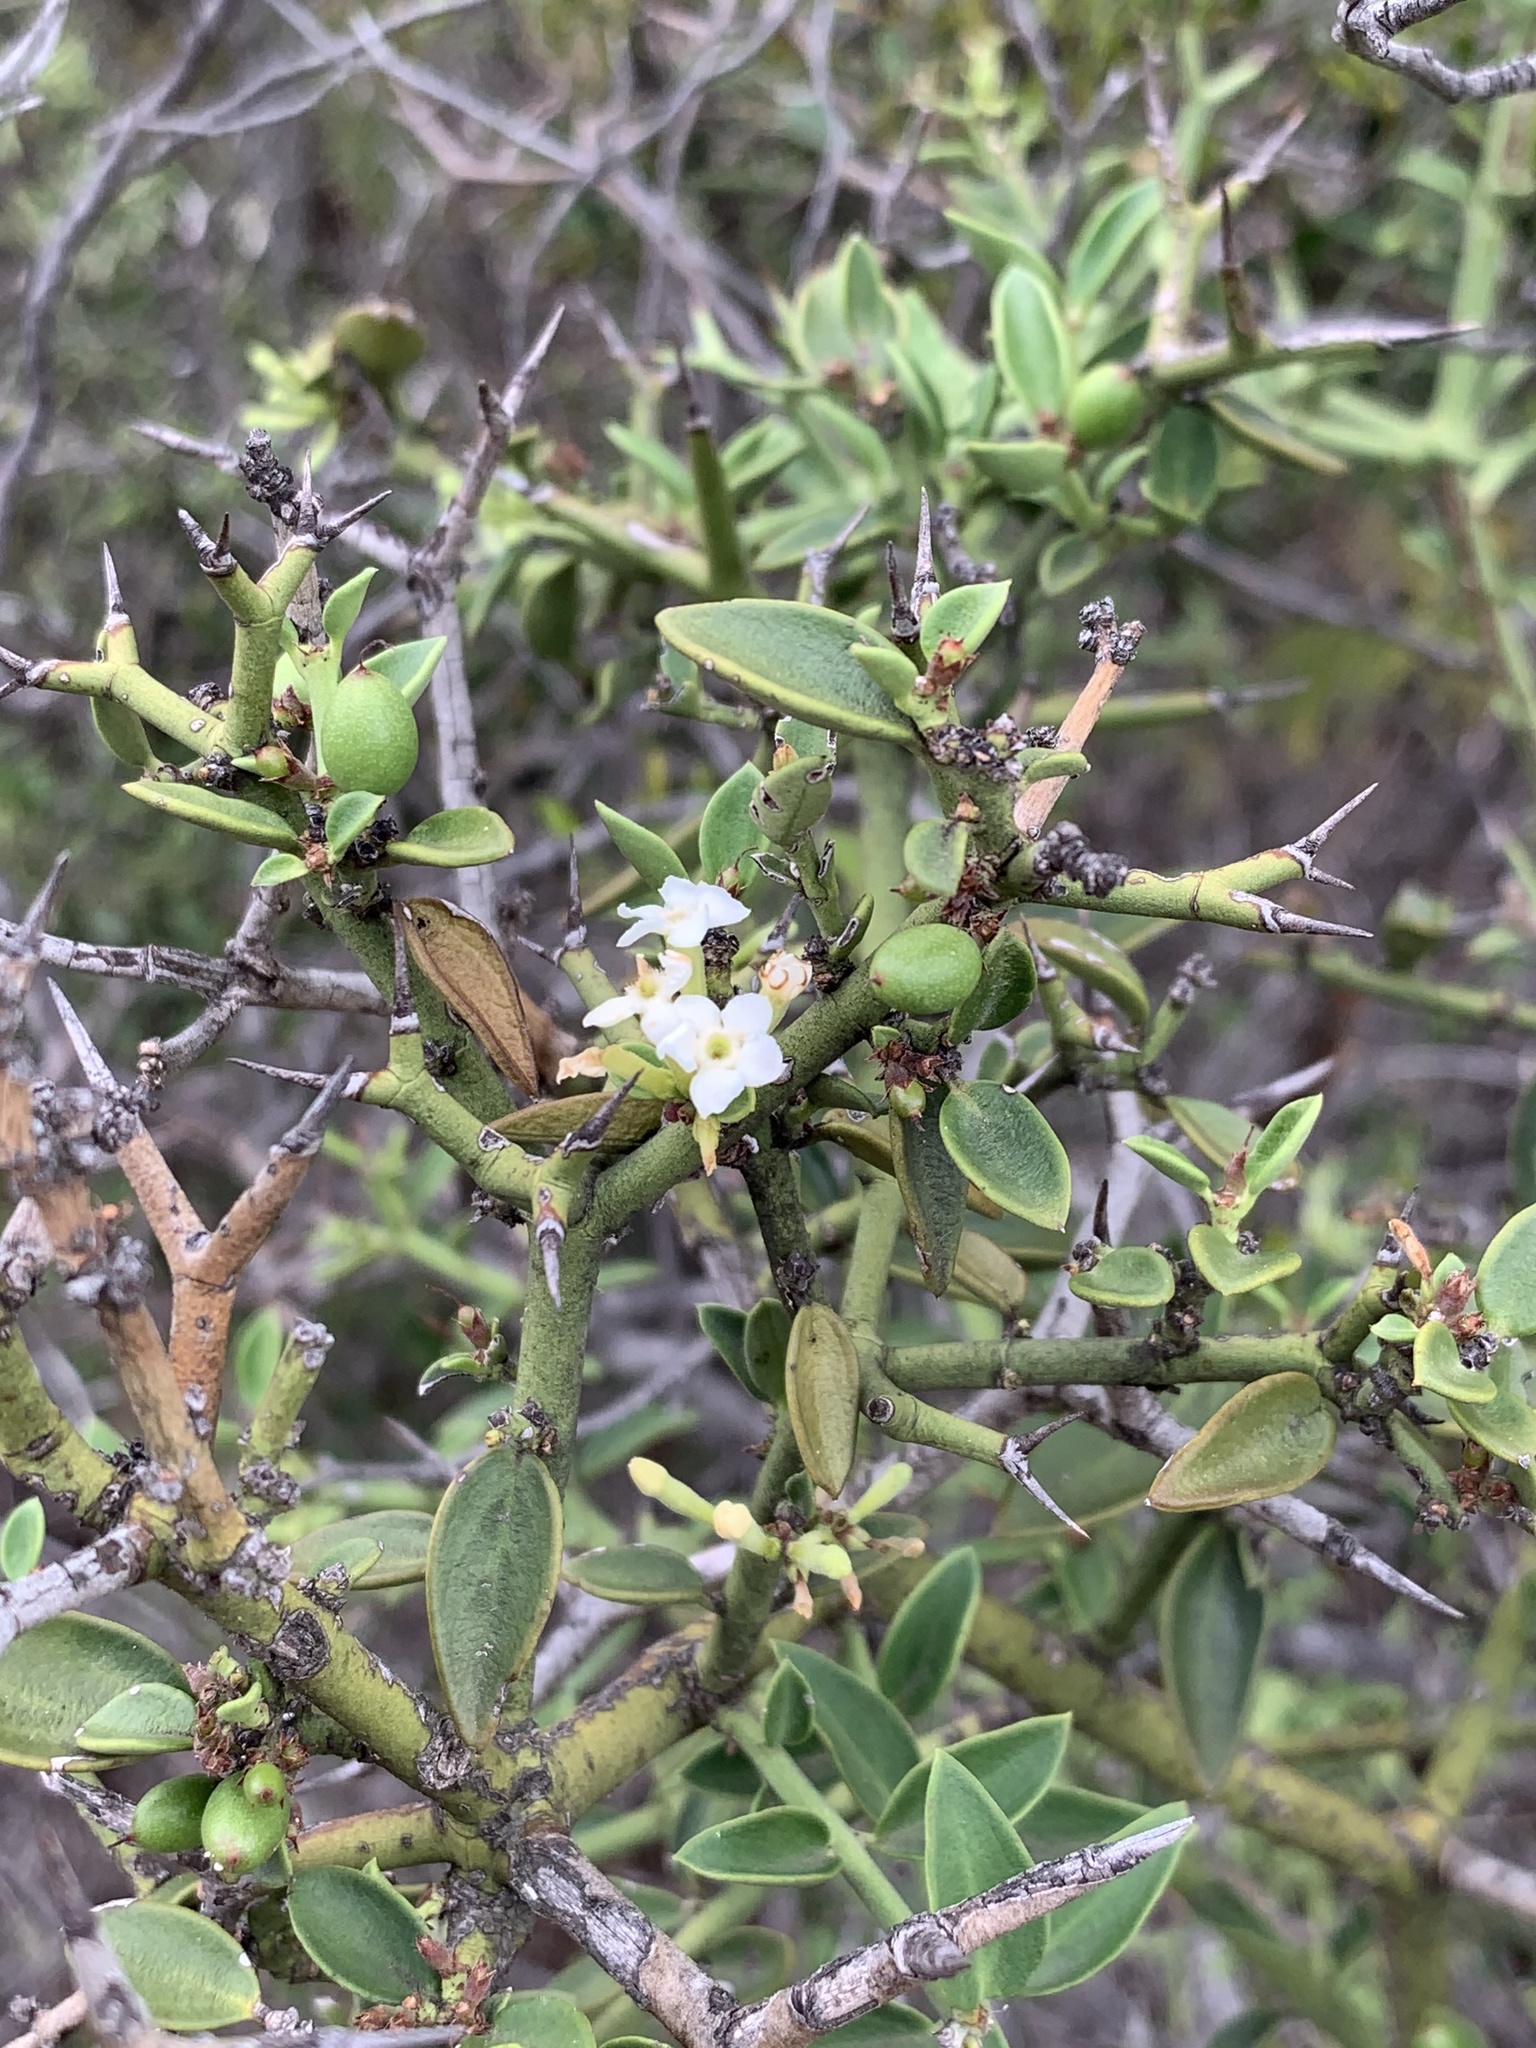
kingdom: Plantae
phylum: Tracheophyta
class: Magnoliopsida
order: Gentianales
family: Apocynaceae
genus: Carissa
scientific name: Carissa haematocarpa
